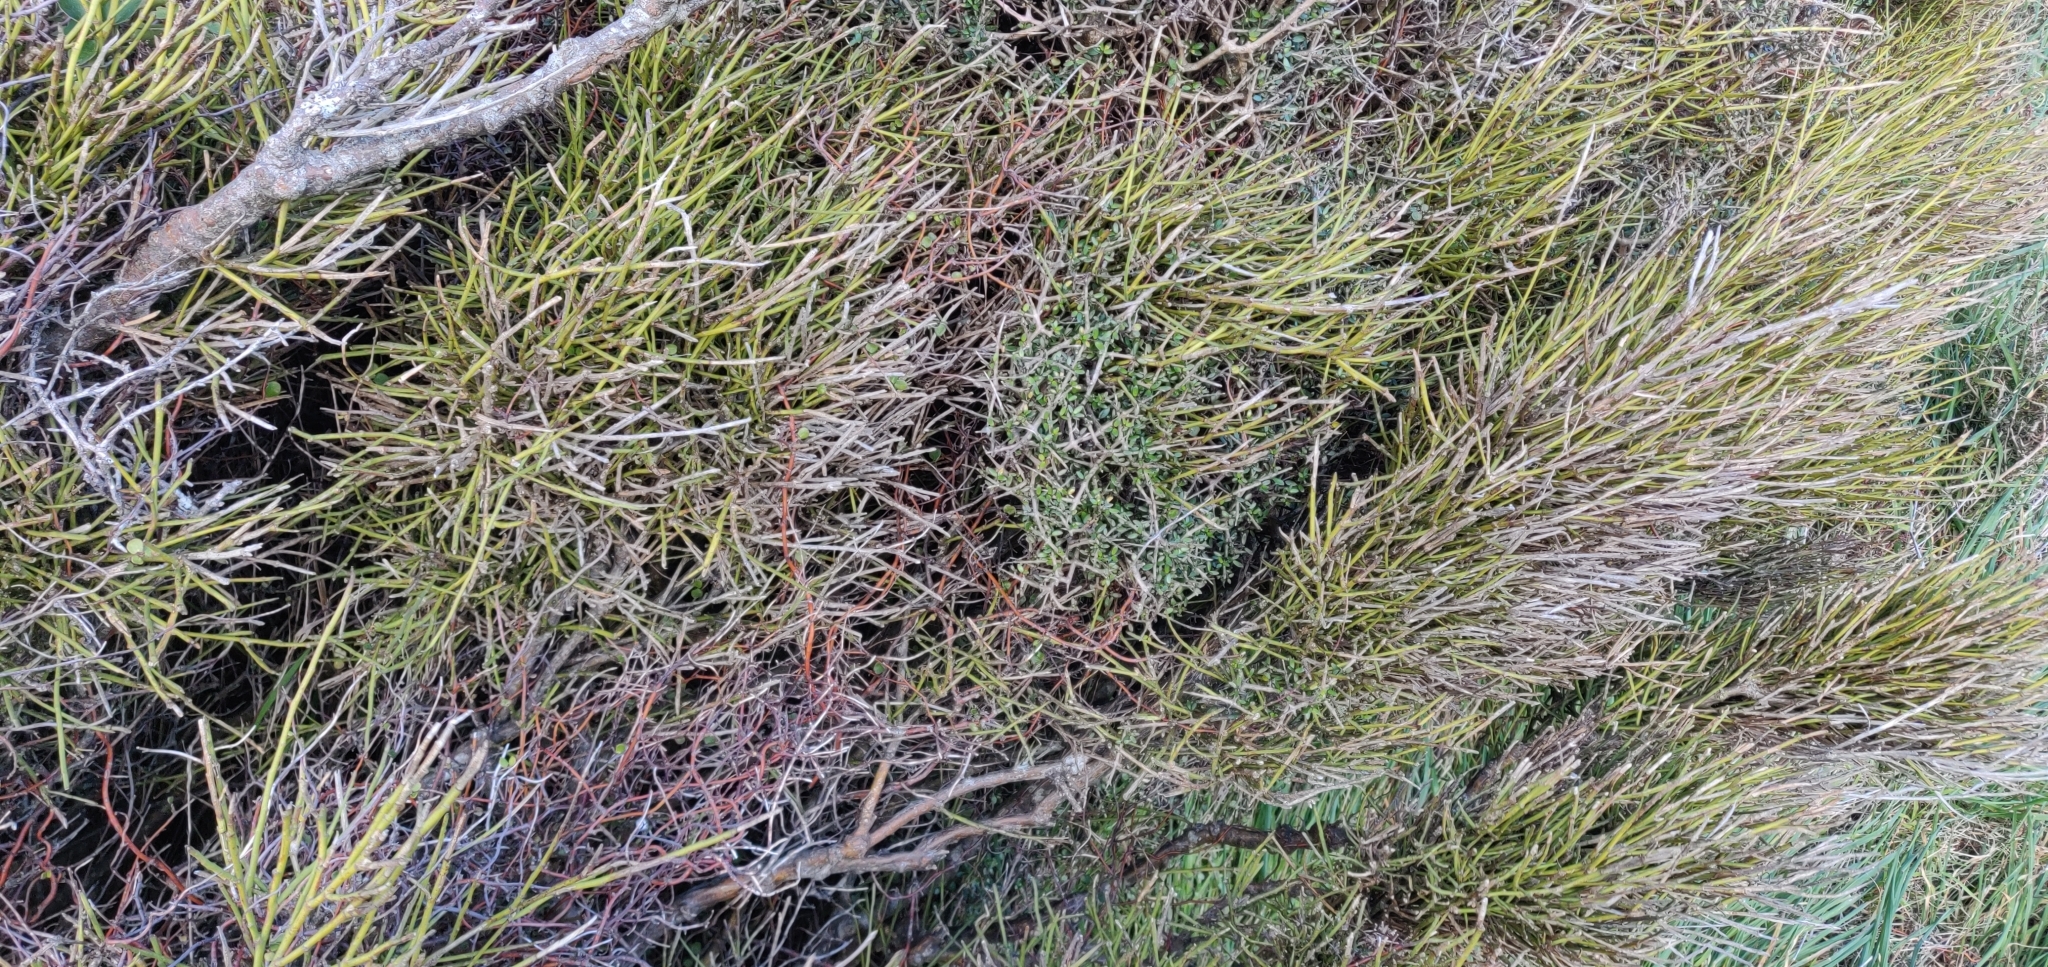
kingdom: Plantae
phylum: Tracheophyta
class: Magnoliopsida
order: Fabales
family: Fabaceae
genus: Carmichaelia
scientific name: Carmichaelia australis
